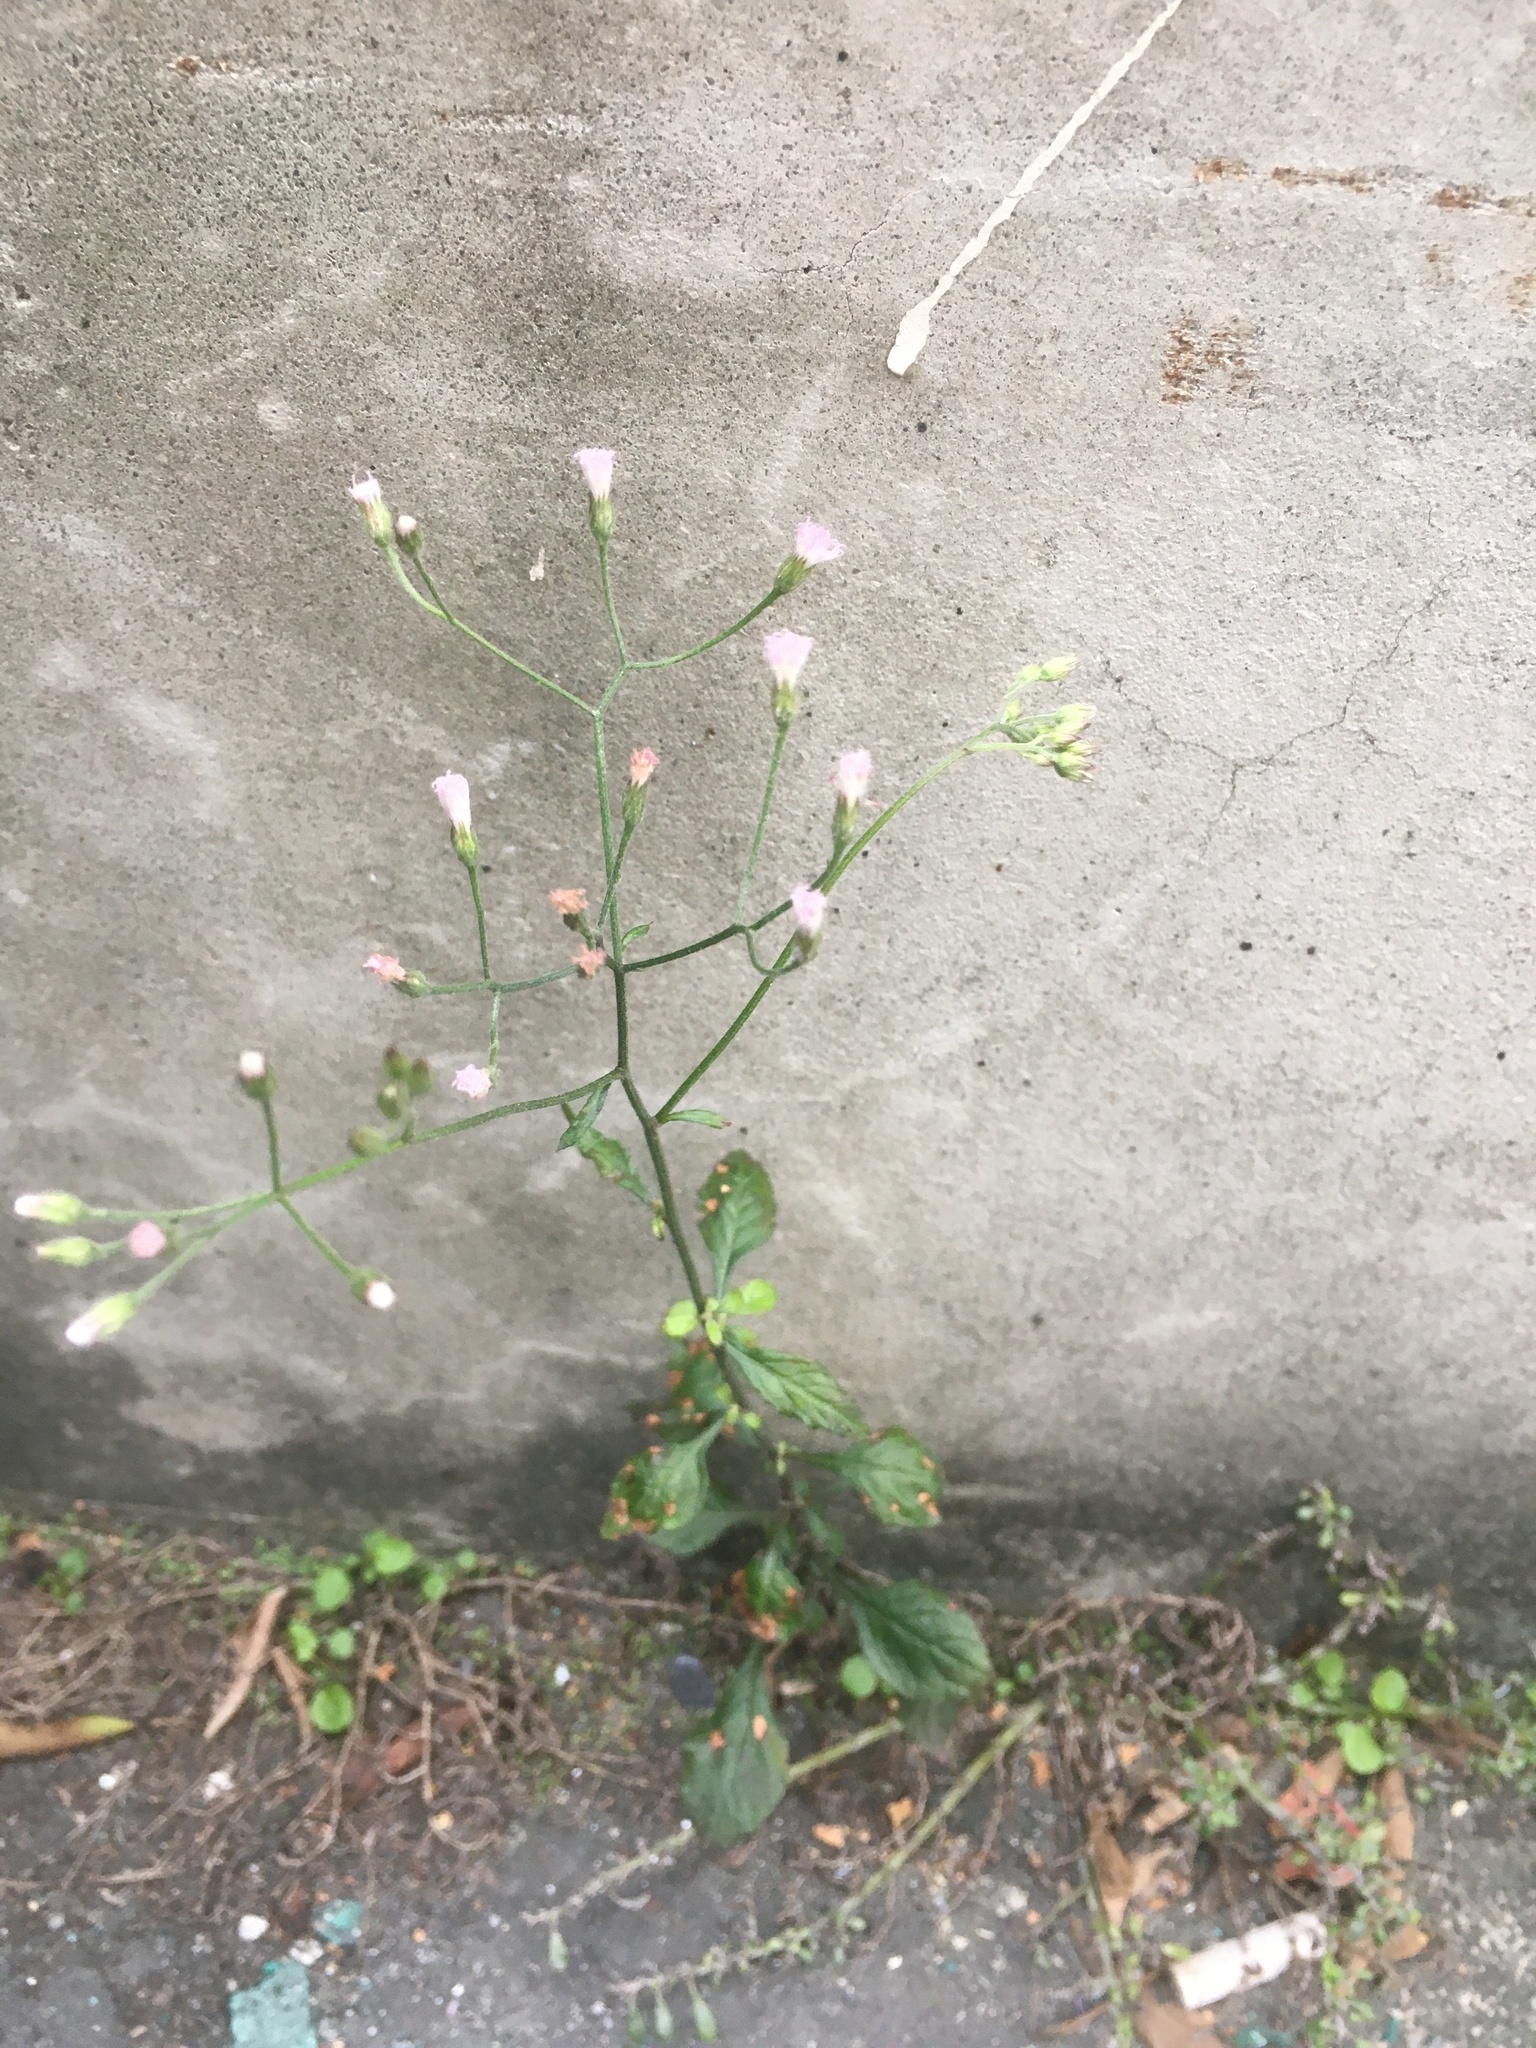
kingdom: Plantae
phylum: Tracheophyta
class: Magnoliopsida
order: Asterales
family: Asteraceae
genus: Cyanthillium
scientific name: Cyanthillium cinereum
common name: Little ironweed
